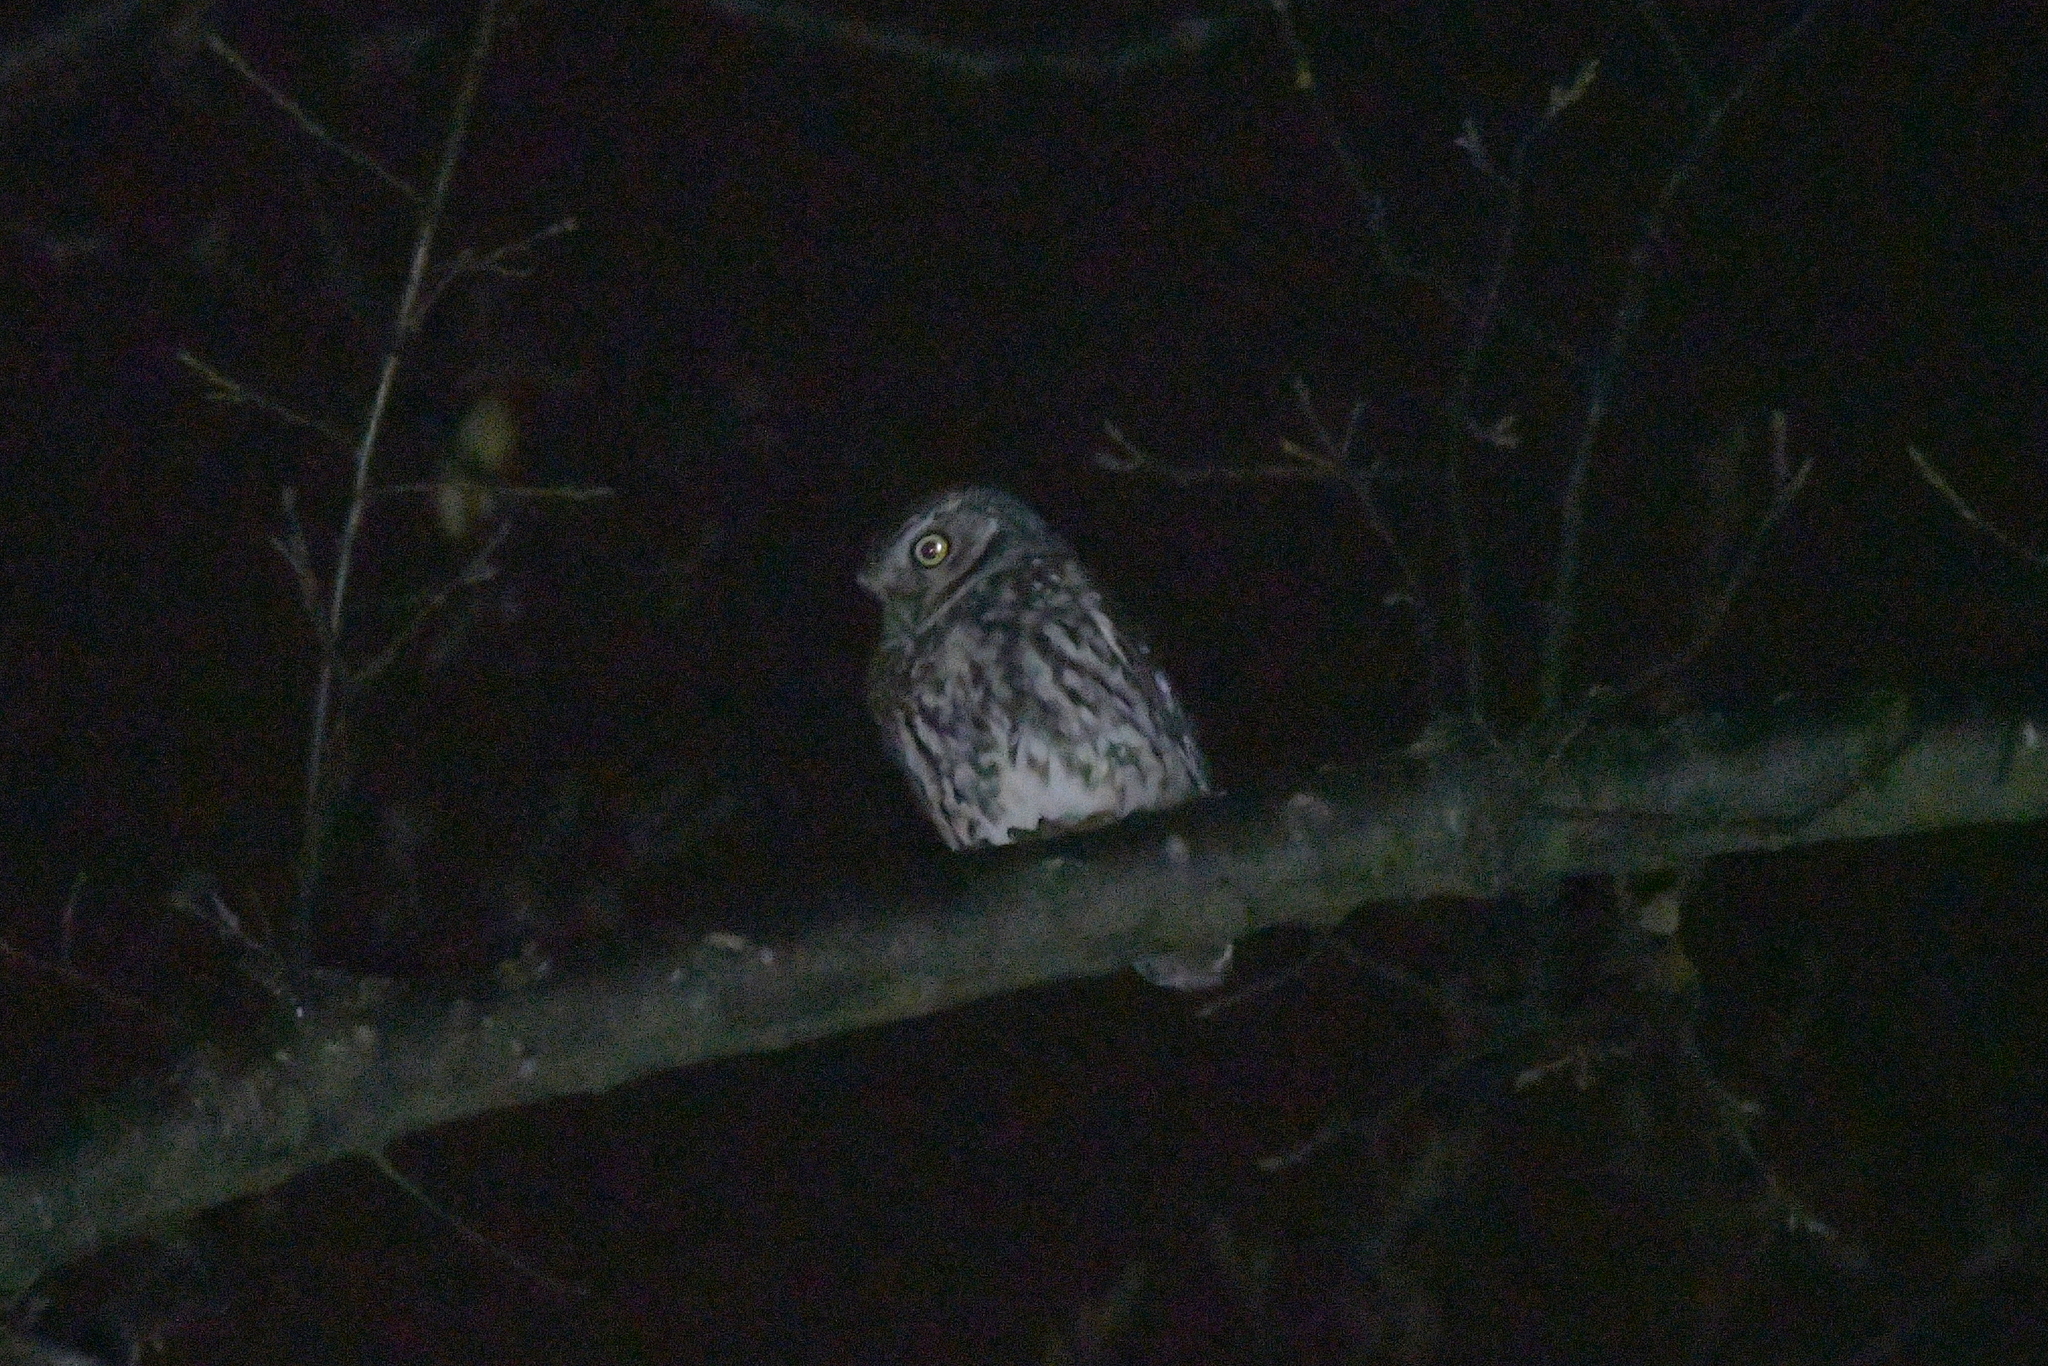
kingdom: Animalia
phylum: Chordata
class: Aves
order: Strigiformes
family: Strigidae
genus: Athene
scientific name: Athene noctua
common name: Little owl
